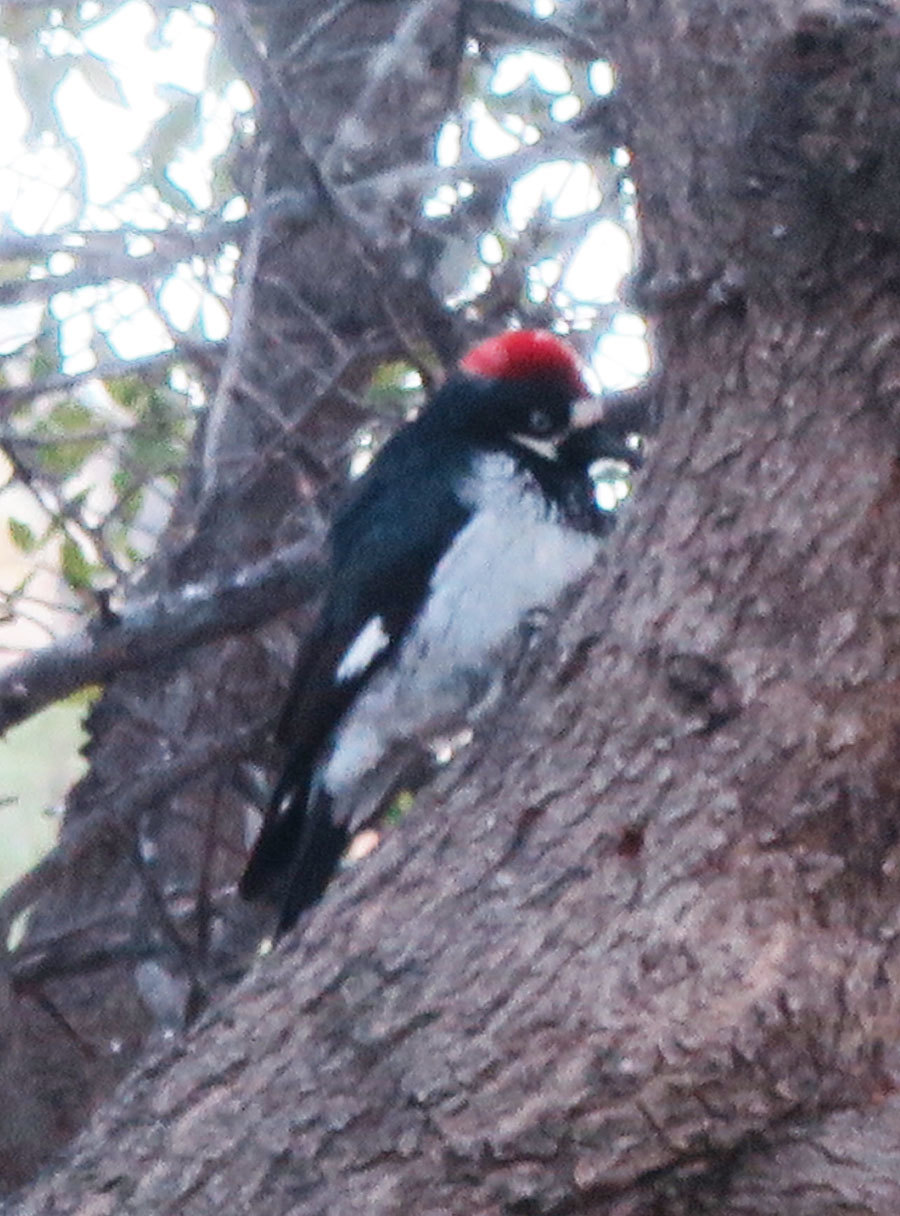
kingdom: Animalia
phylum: Chordata
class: Aves
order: Piciformes
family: Picidae
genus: Melanerpes
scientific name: Melanerpes formicivorus
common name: Acorn woodpecker
